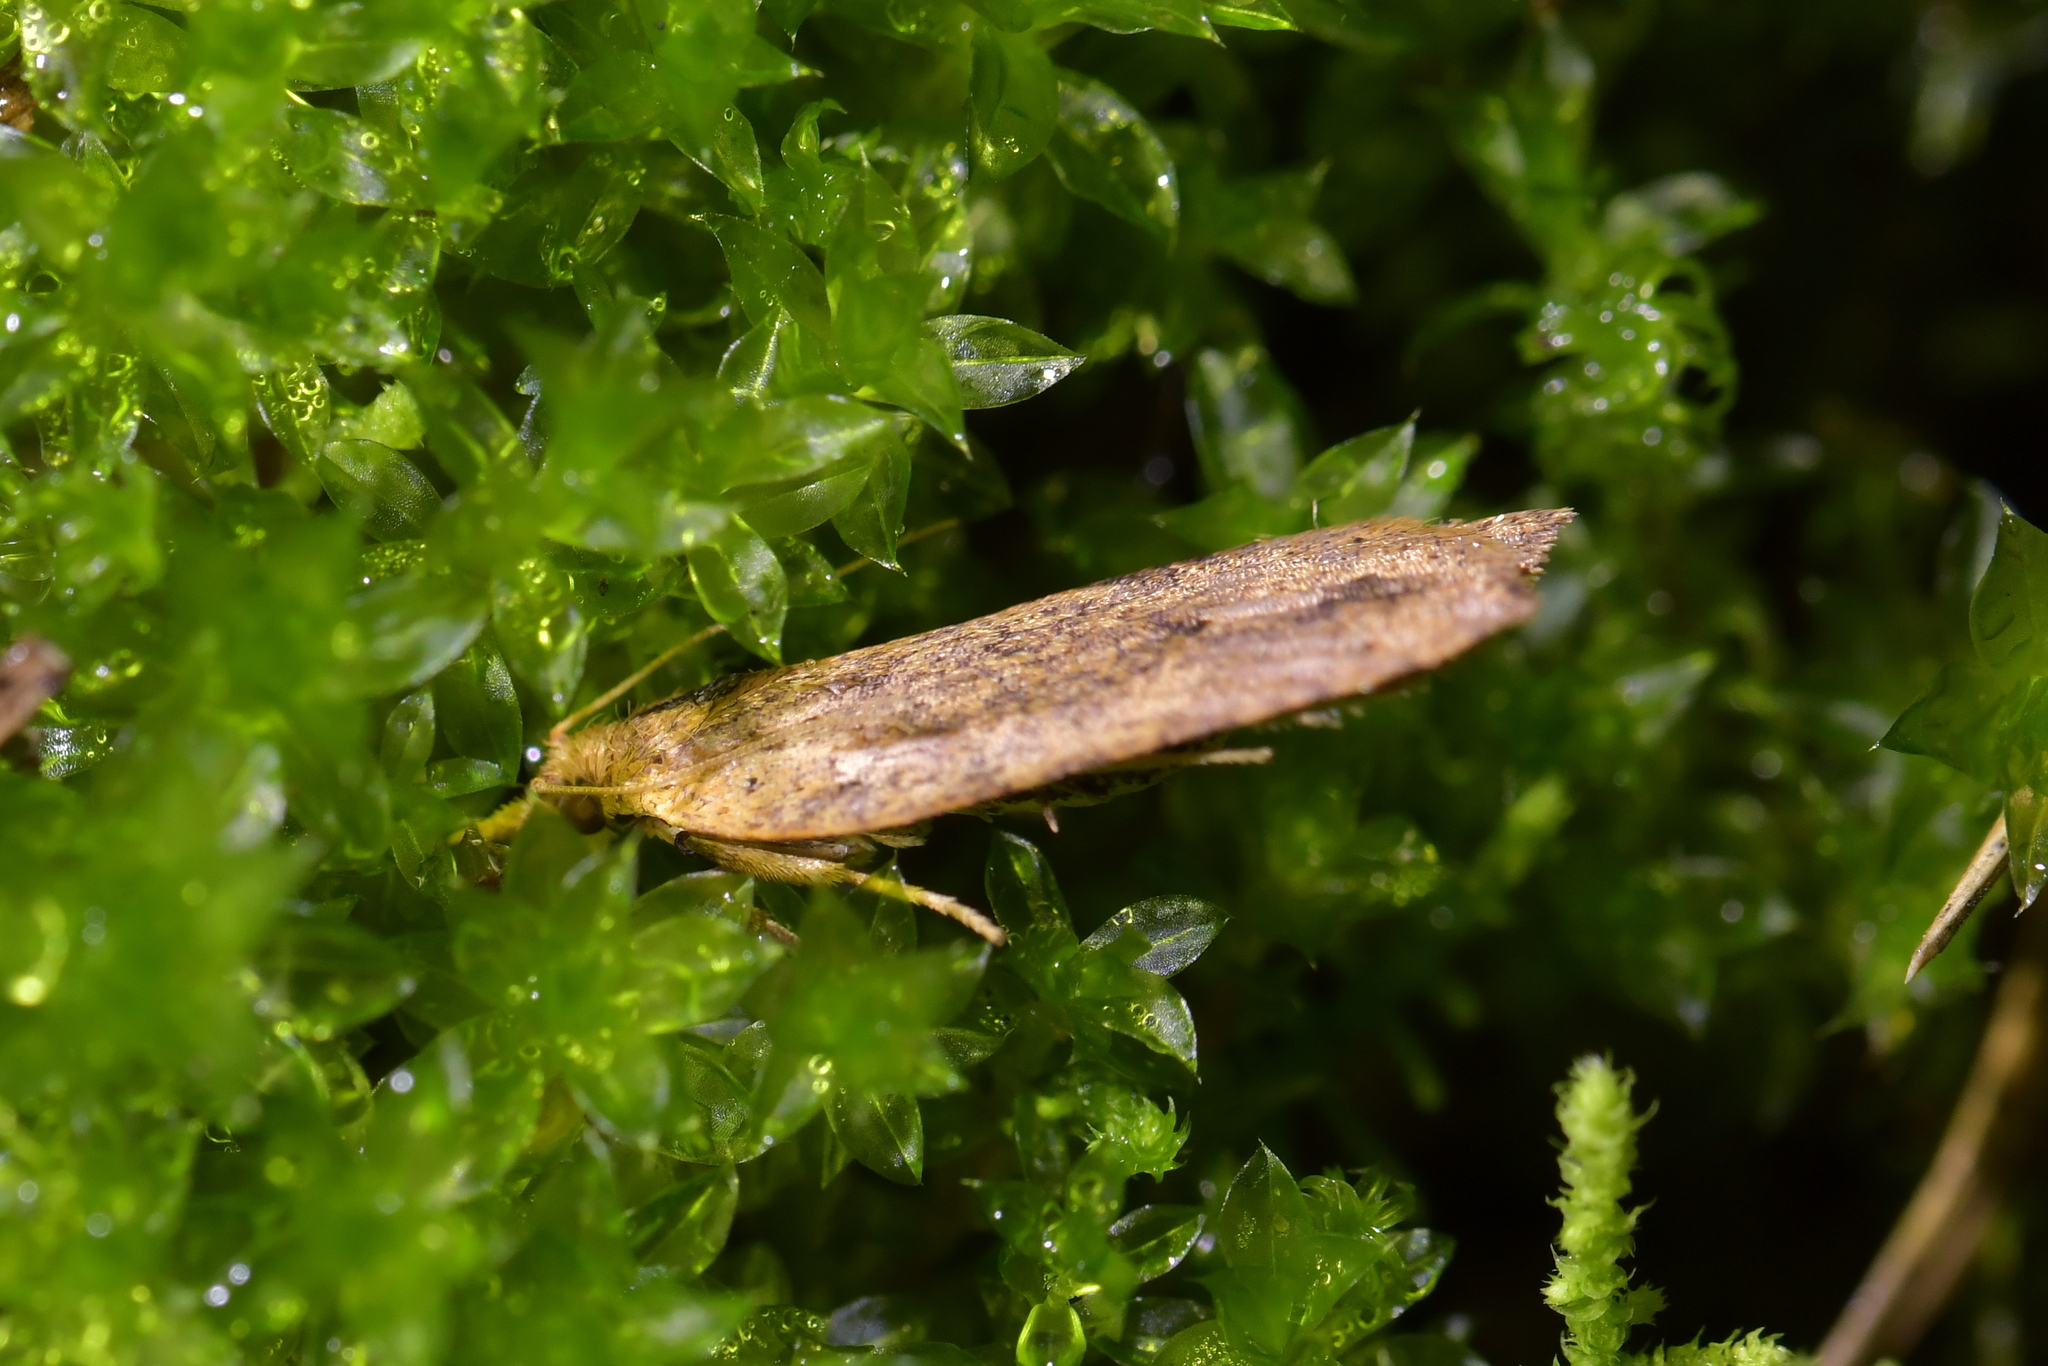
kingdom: Animalia
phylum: Arthropoda
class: Insecta
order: Lepidoptera
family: Tortricidae
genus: Planotortrix
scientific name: Planotortrix notophaea
